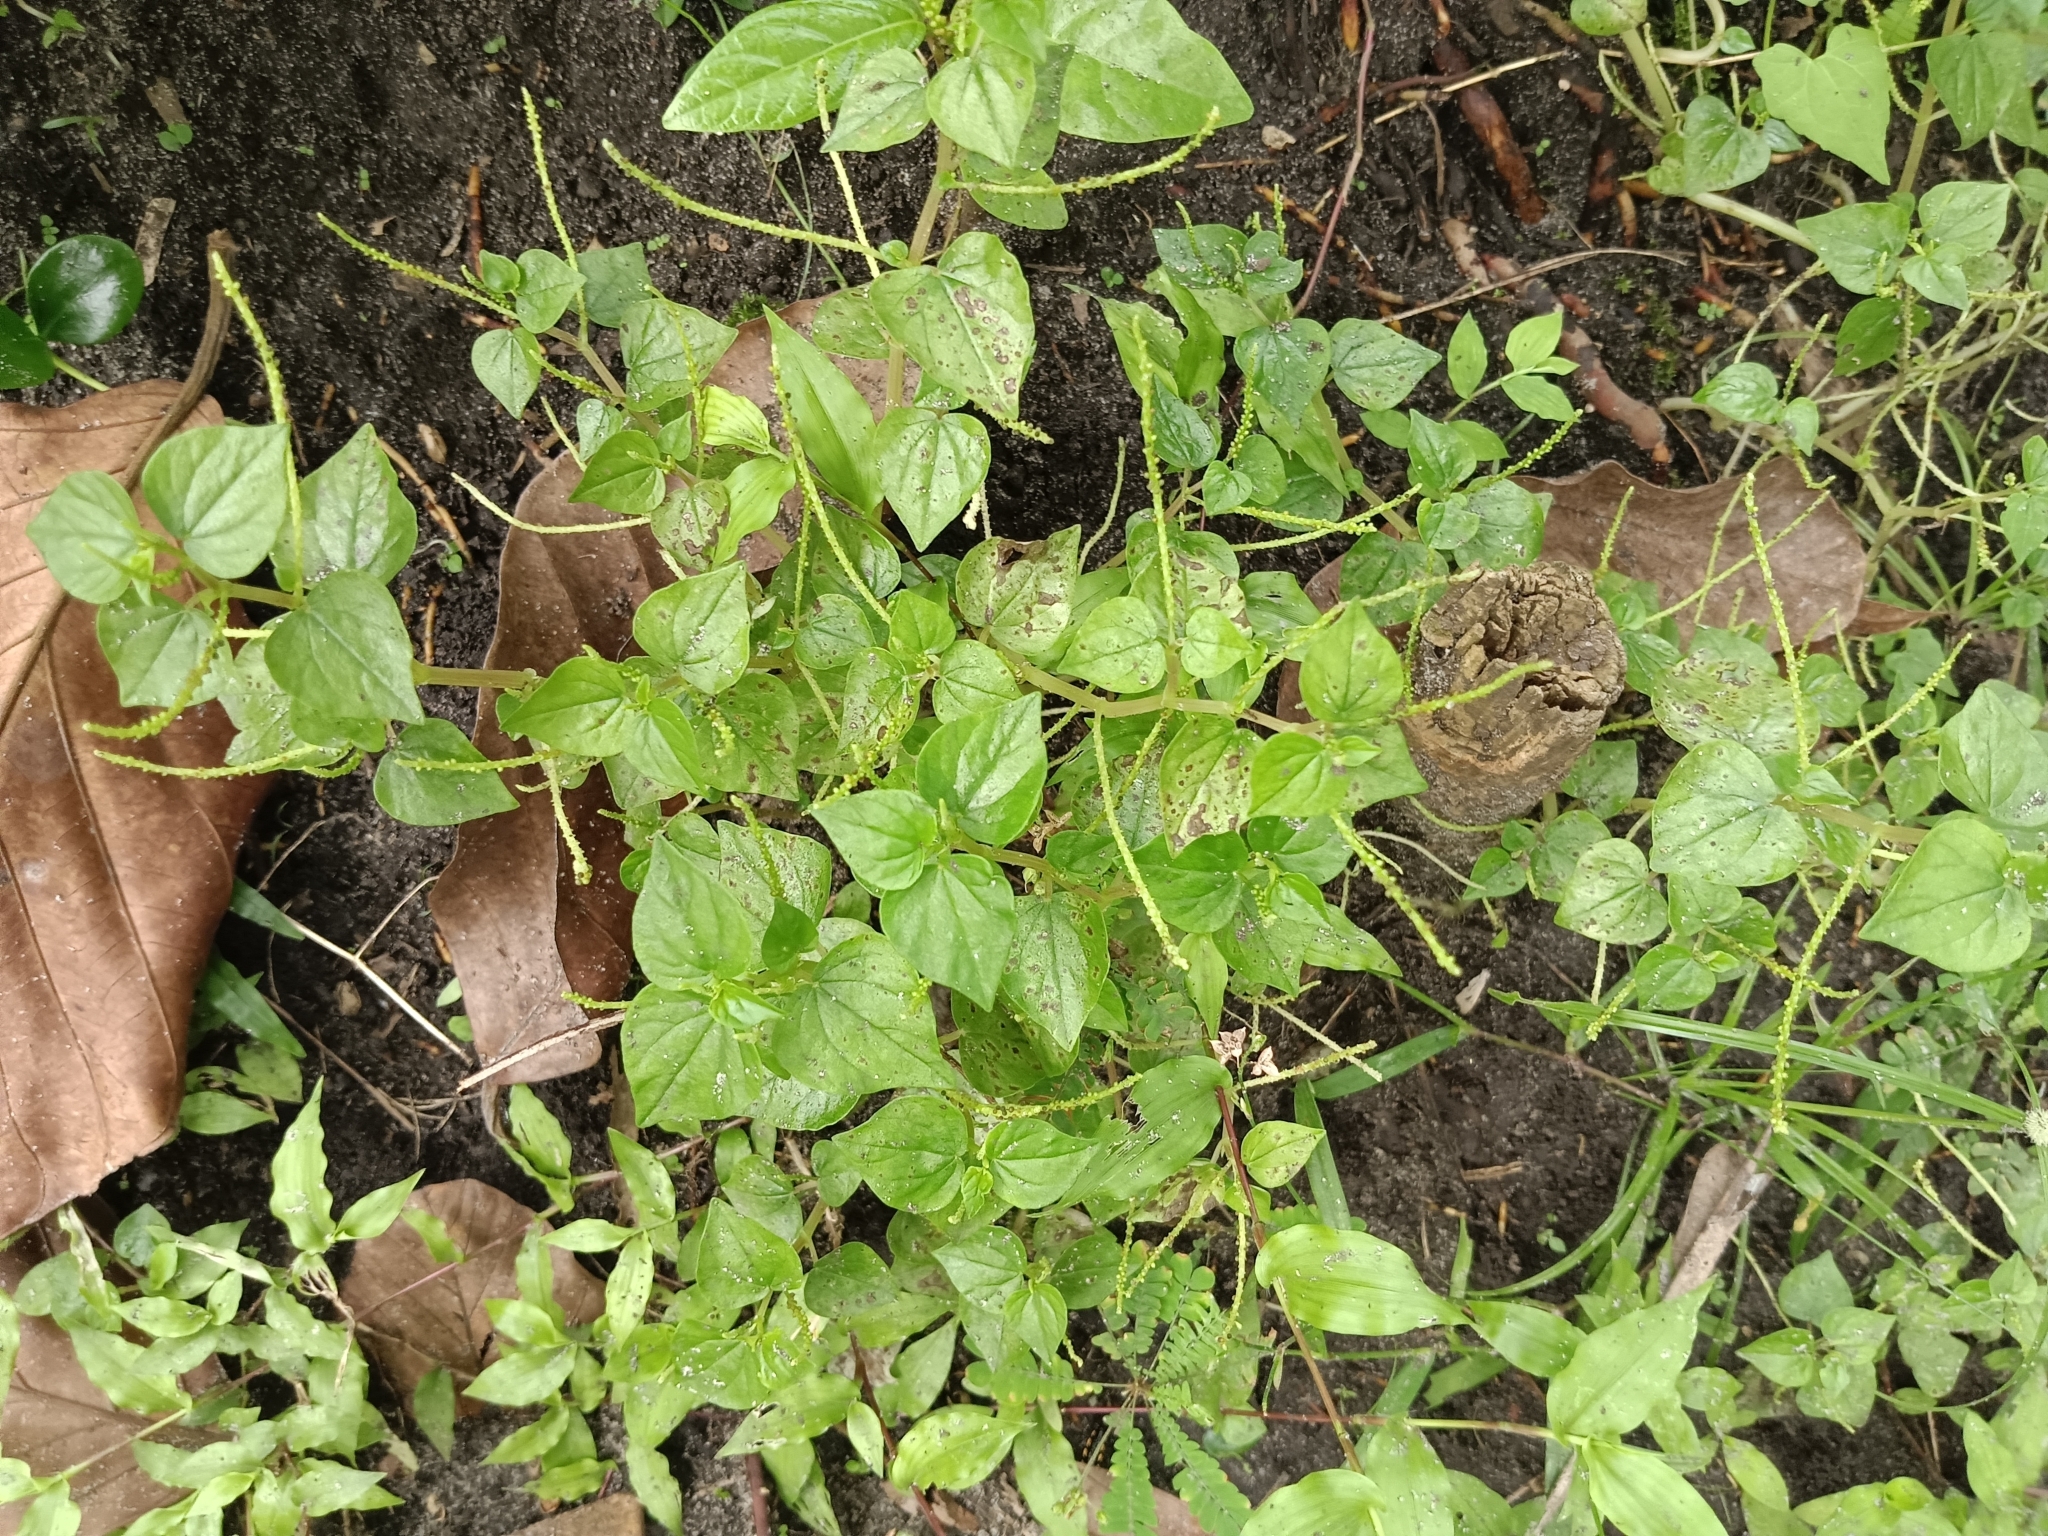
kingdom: Plantae
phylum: Tracheophyta
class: Magnoliopsida
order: Piperales
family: Piperaceae
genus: Peperomia
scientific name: Peperomia pellucida
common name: Man to man
